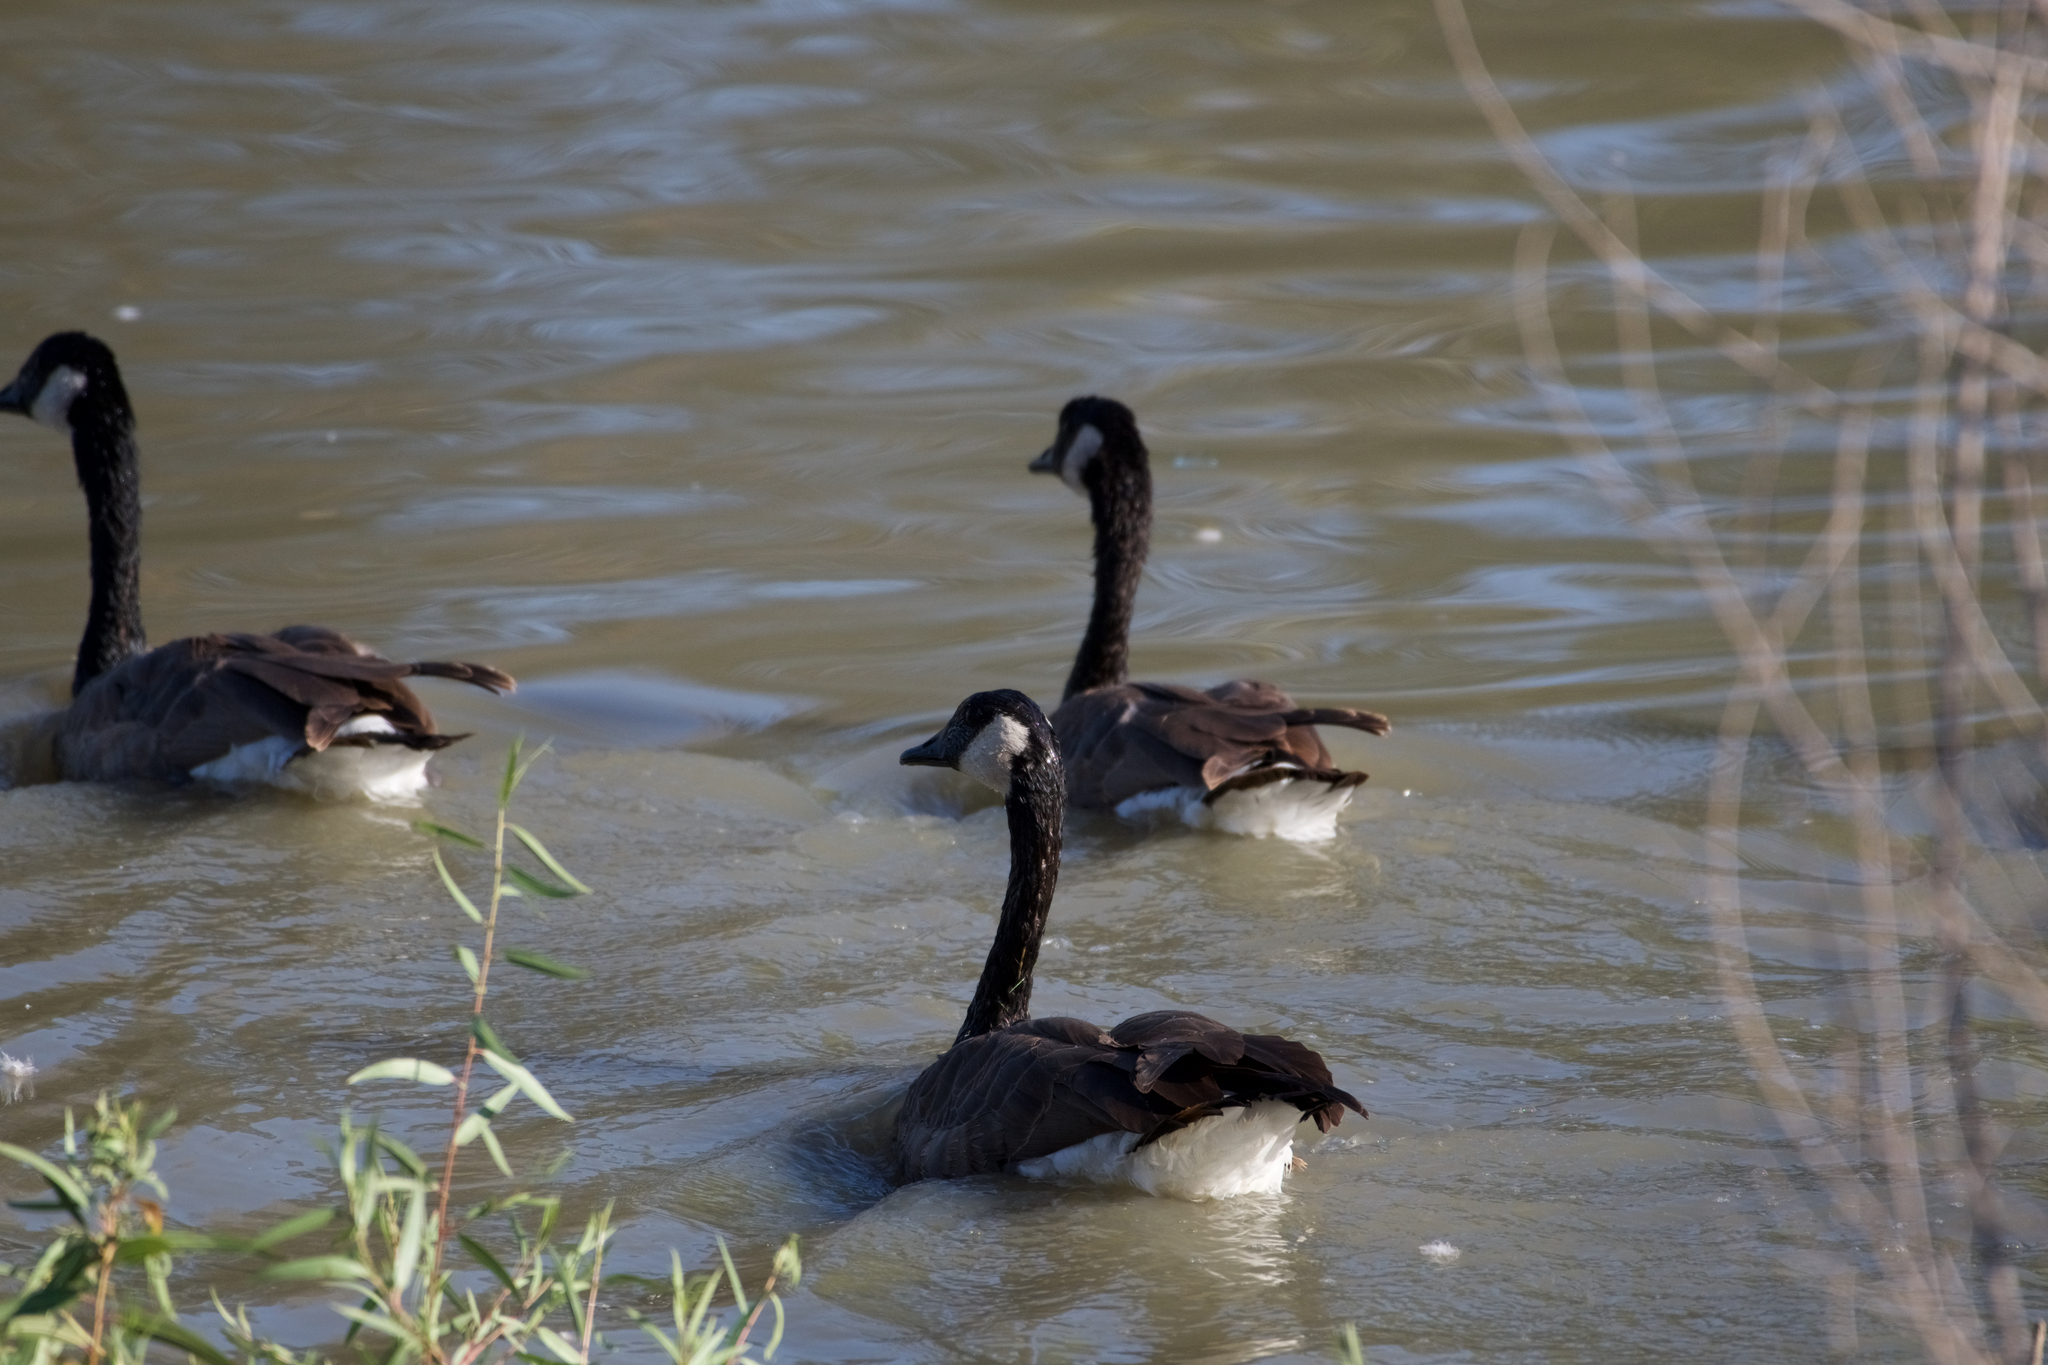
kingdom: Animalia
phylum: Chordata
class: Aves
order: Anseriformes
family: Anatidae
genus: Branta
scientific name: Branta canadensis
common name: Canada goose
